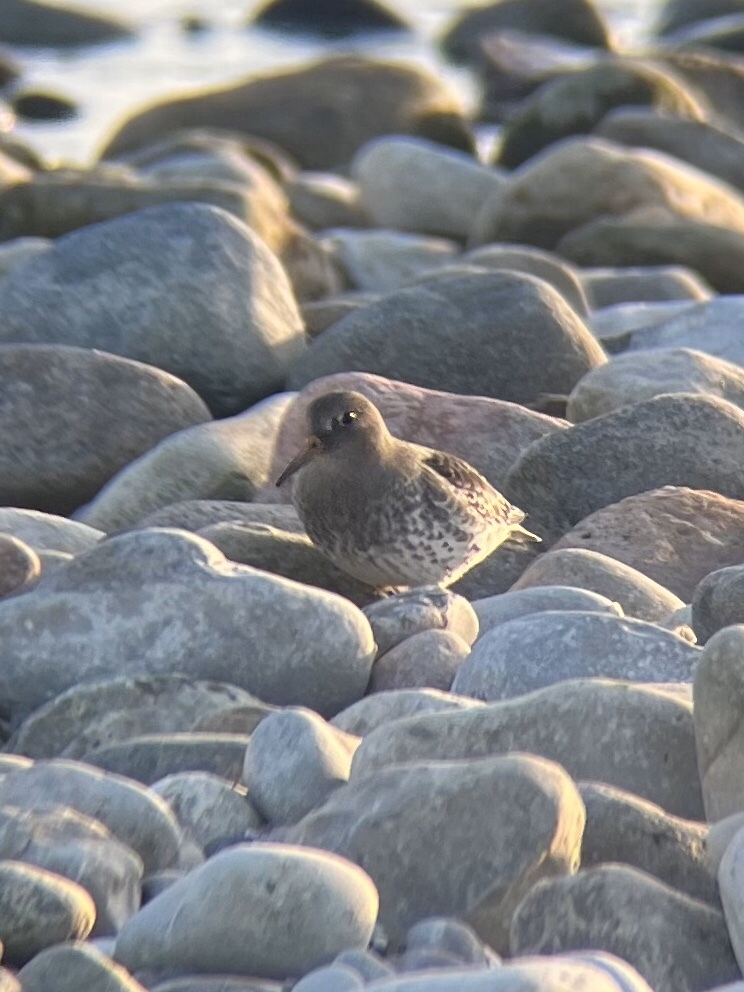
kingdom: Animalia
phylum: Chordata
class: Aves
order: Charadriiformes
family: Scolopacidae
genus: Calidris
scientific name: Calidris maritima
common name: Purple sandpiper
